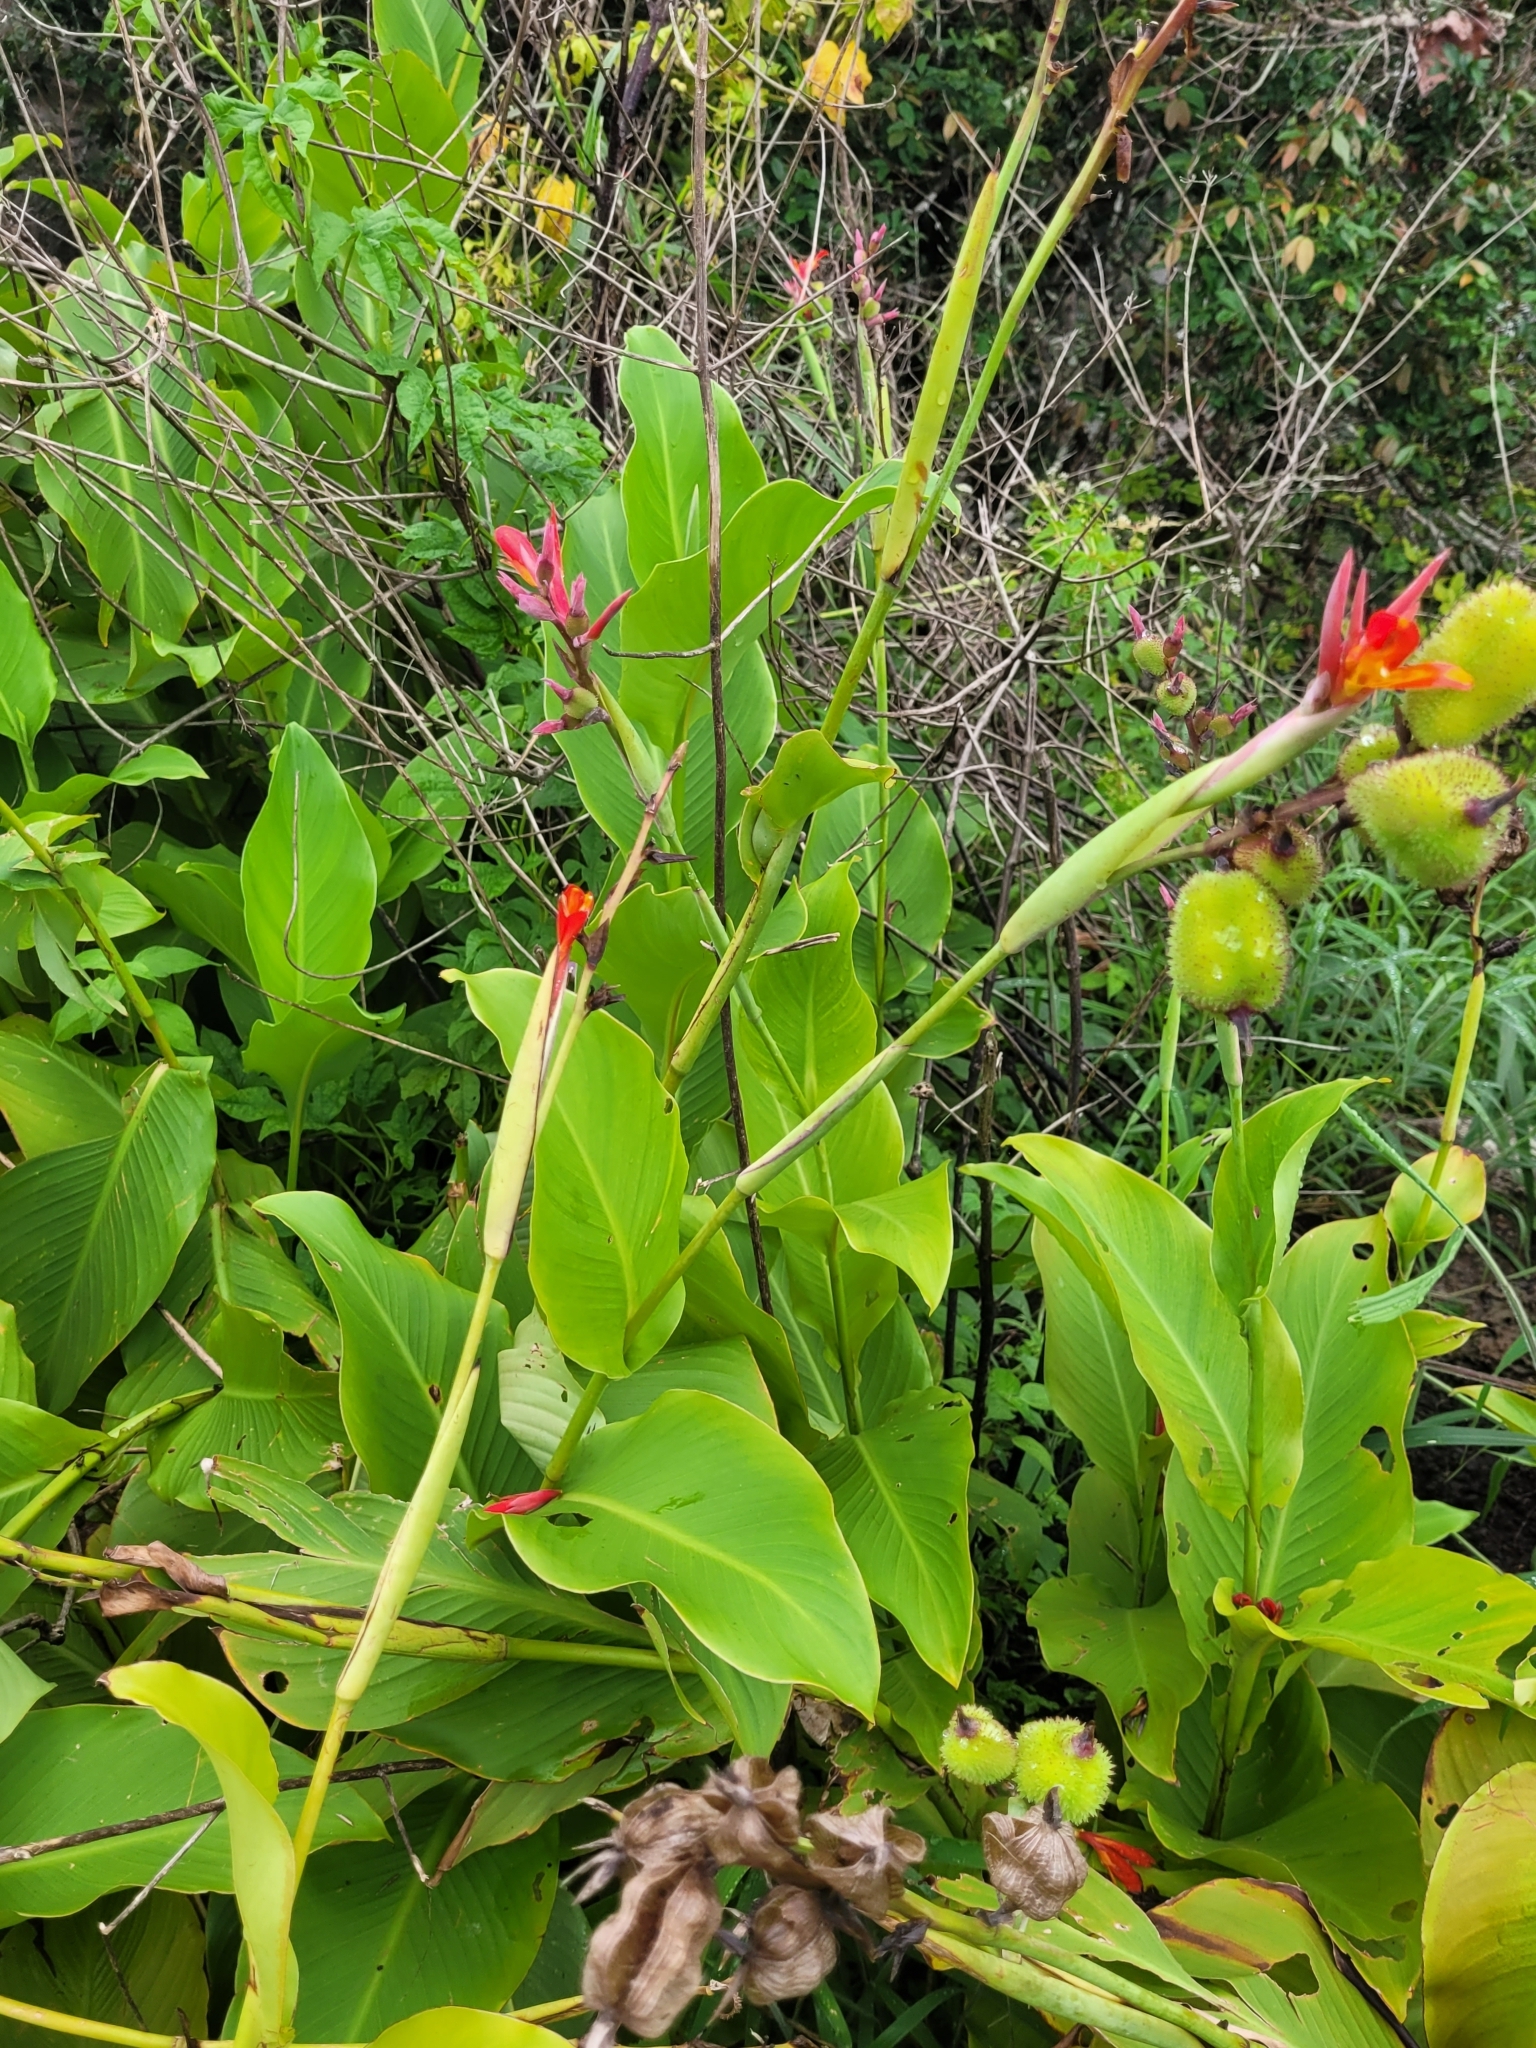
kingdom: Plantae
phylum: Tracheophyta
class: Liliopsida
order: Zingiberales
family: Cannaceae
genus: Canna
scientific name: Canna indica
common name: Indian shot
